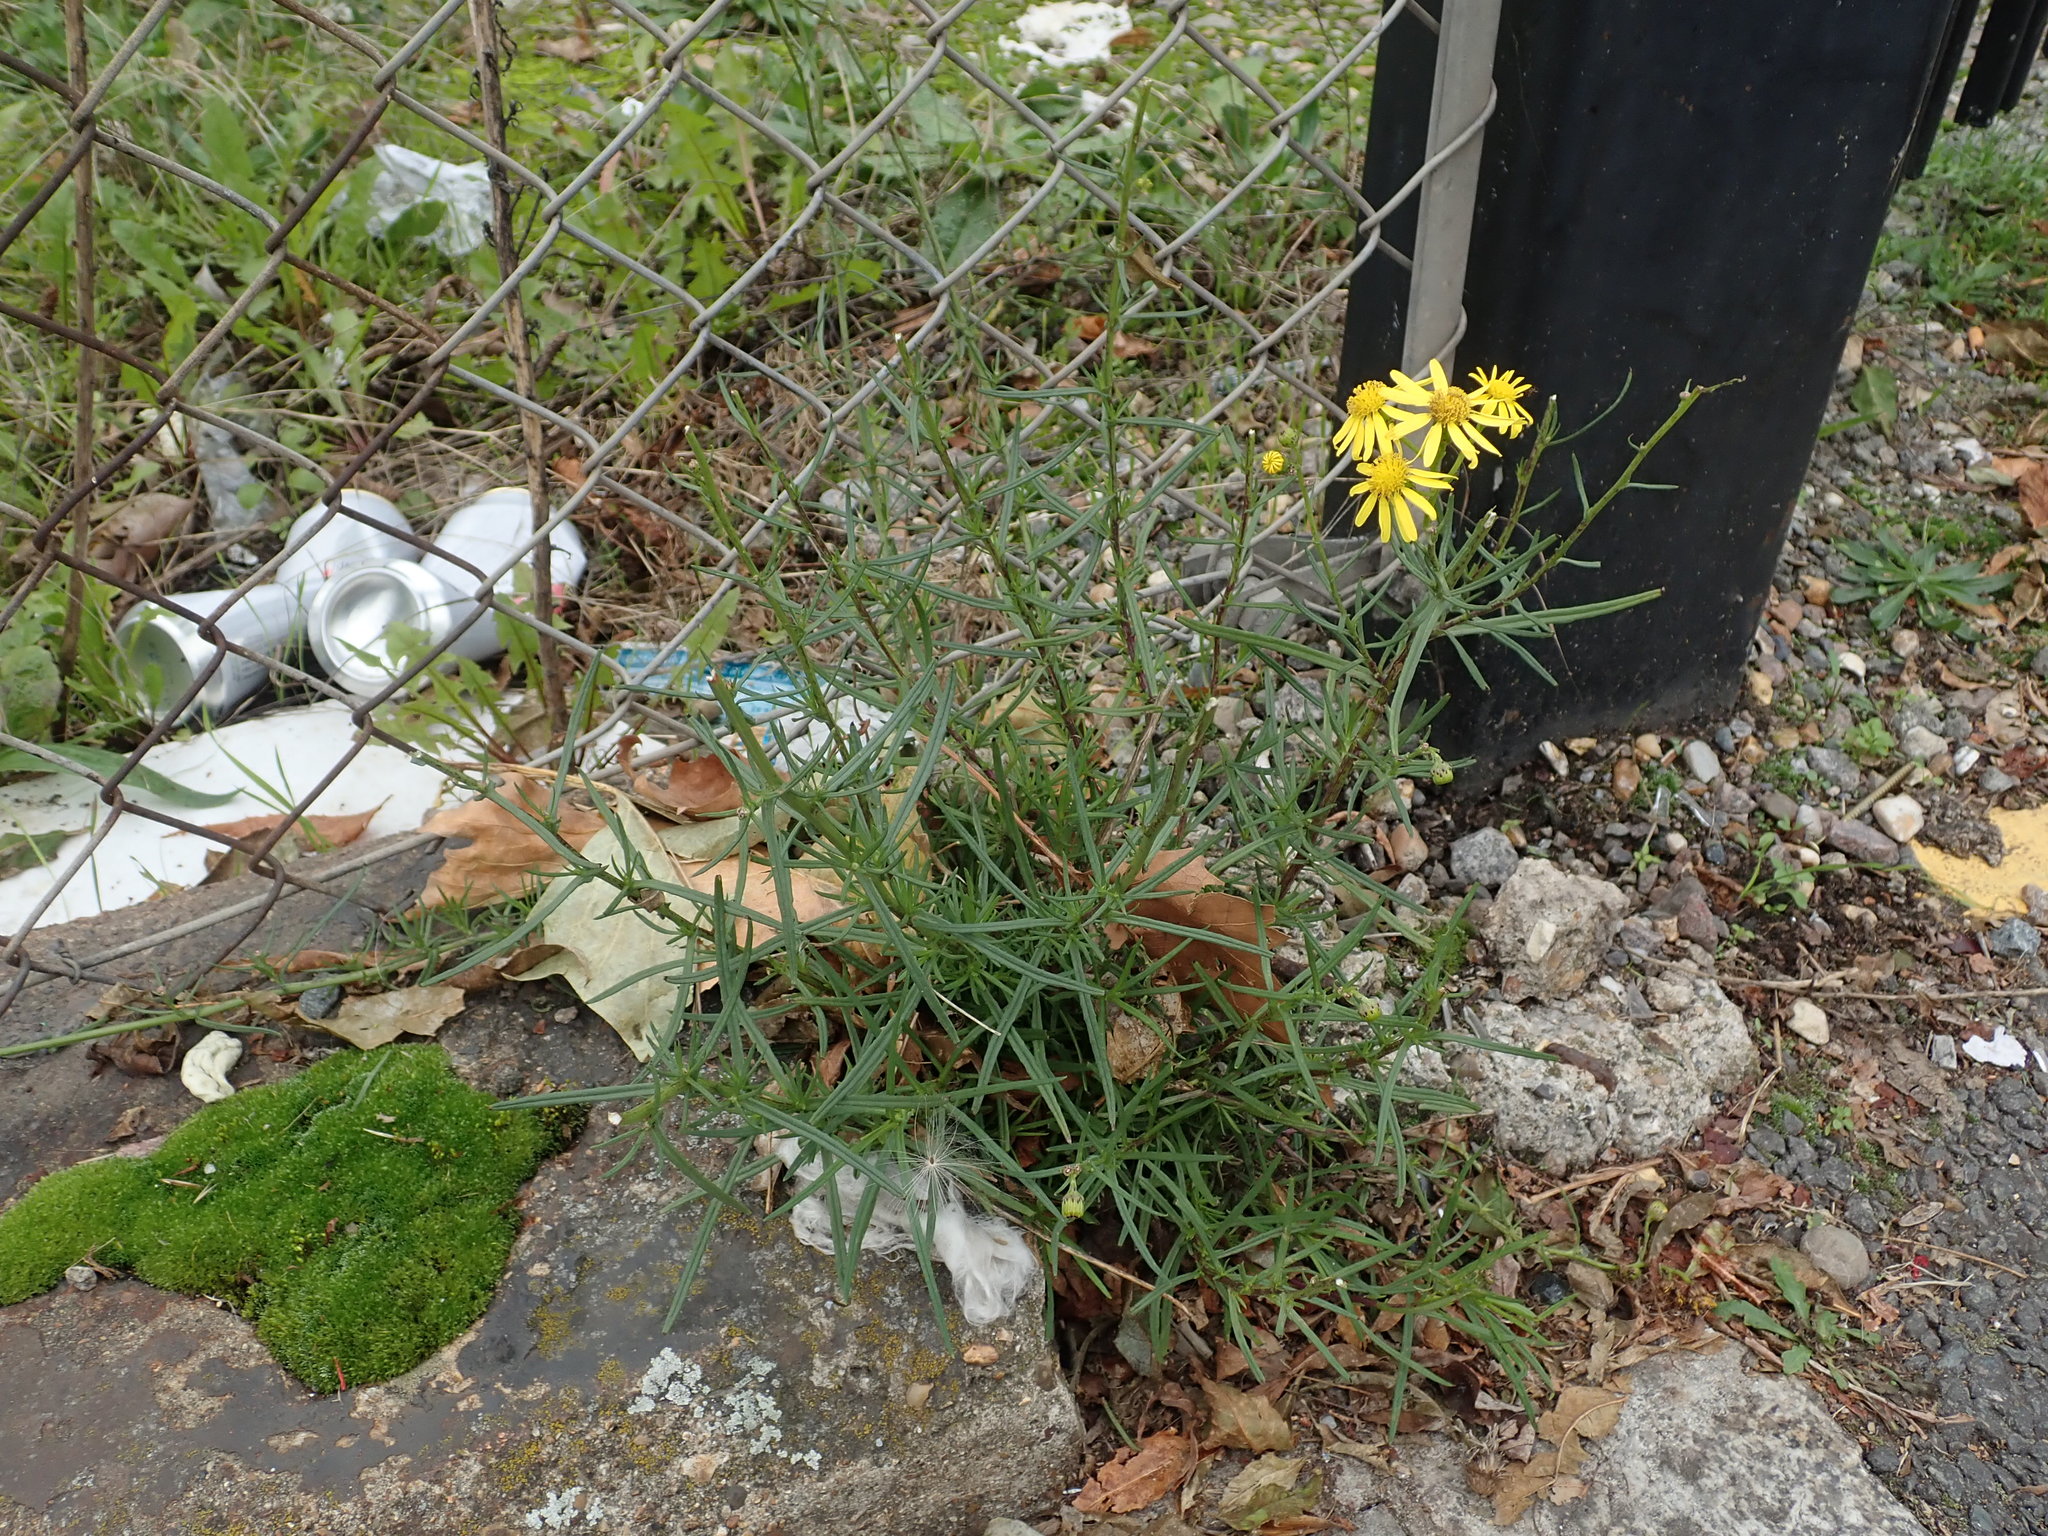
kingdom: Plantae
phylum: Tracheophyta
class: Magnoliopsida
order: Asterales
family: Asteraceae
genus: Senecio
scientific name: Senecio inaequidens
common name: Narrow-leaved ragwort
